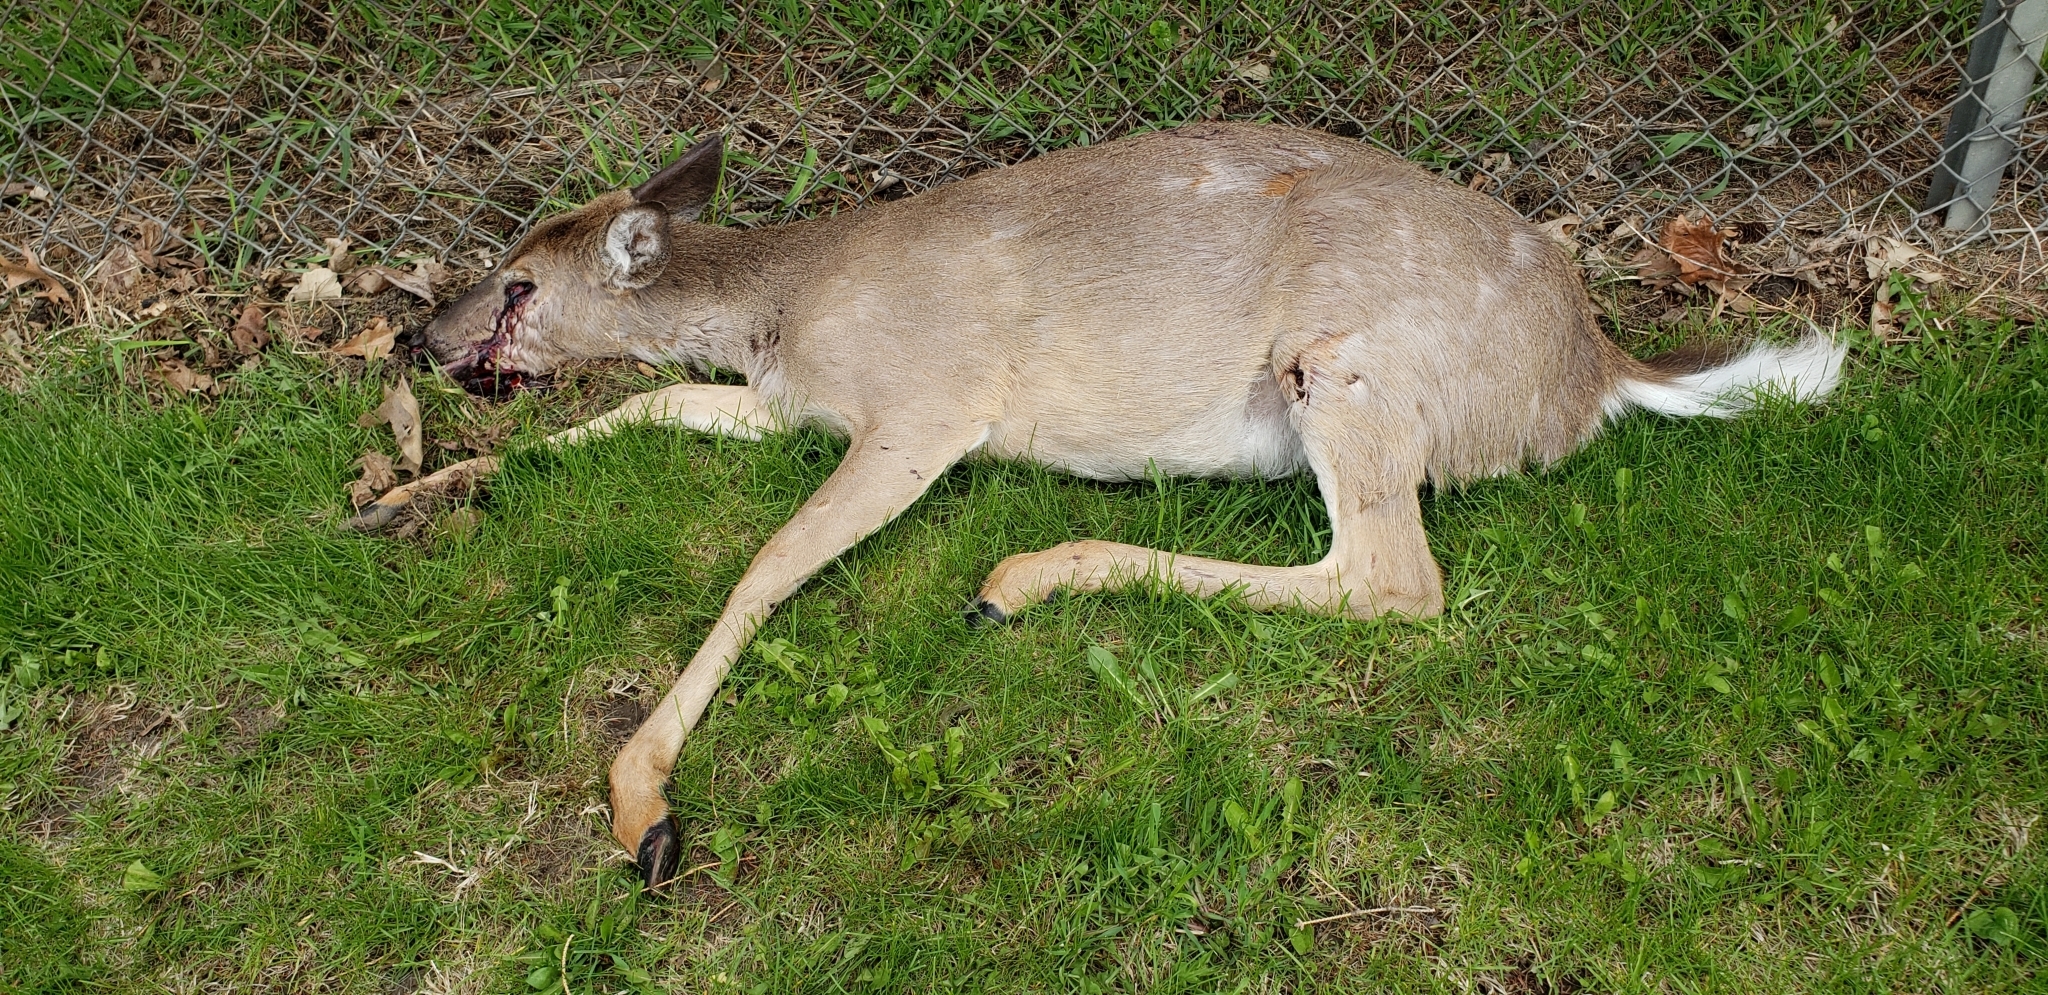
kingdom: Animalia
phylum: Chordata
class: Mammalia
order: Artiodactyla
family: Cervidae
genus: Odocoileus
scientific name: Odocoileus virginianus
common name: White-tailed deer
